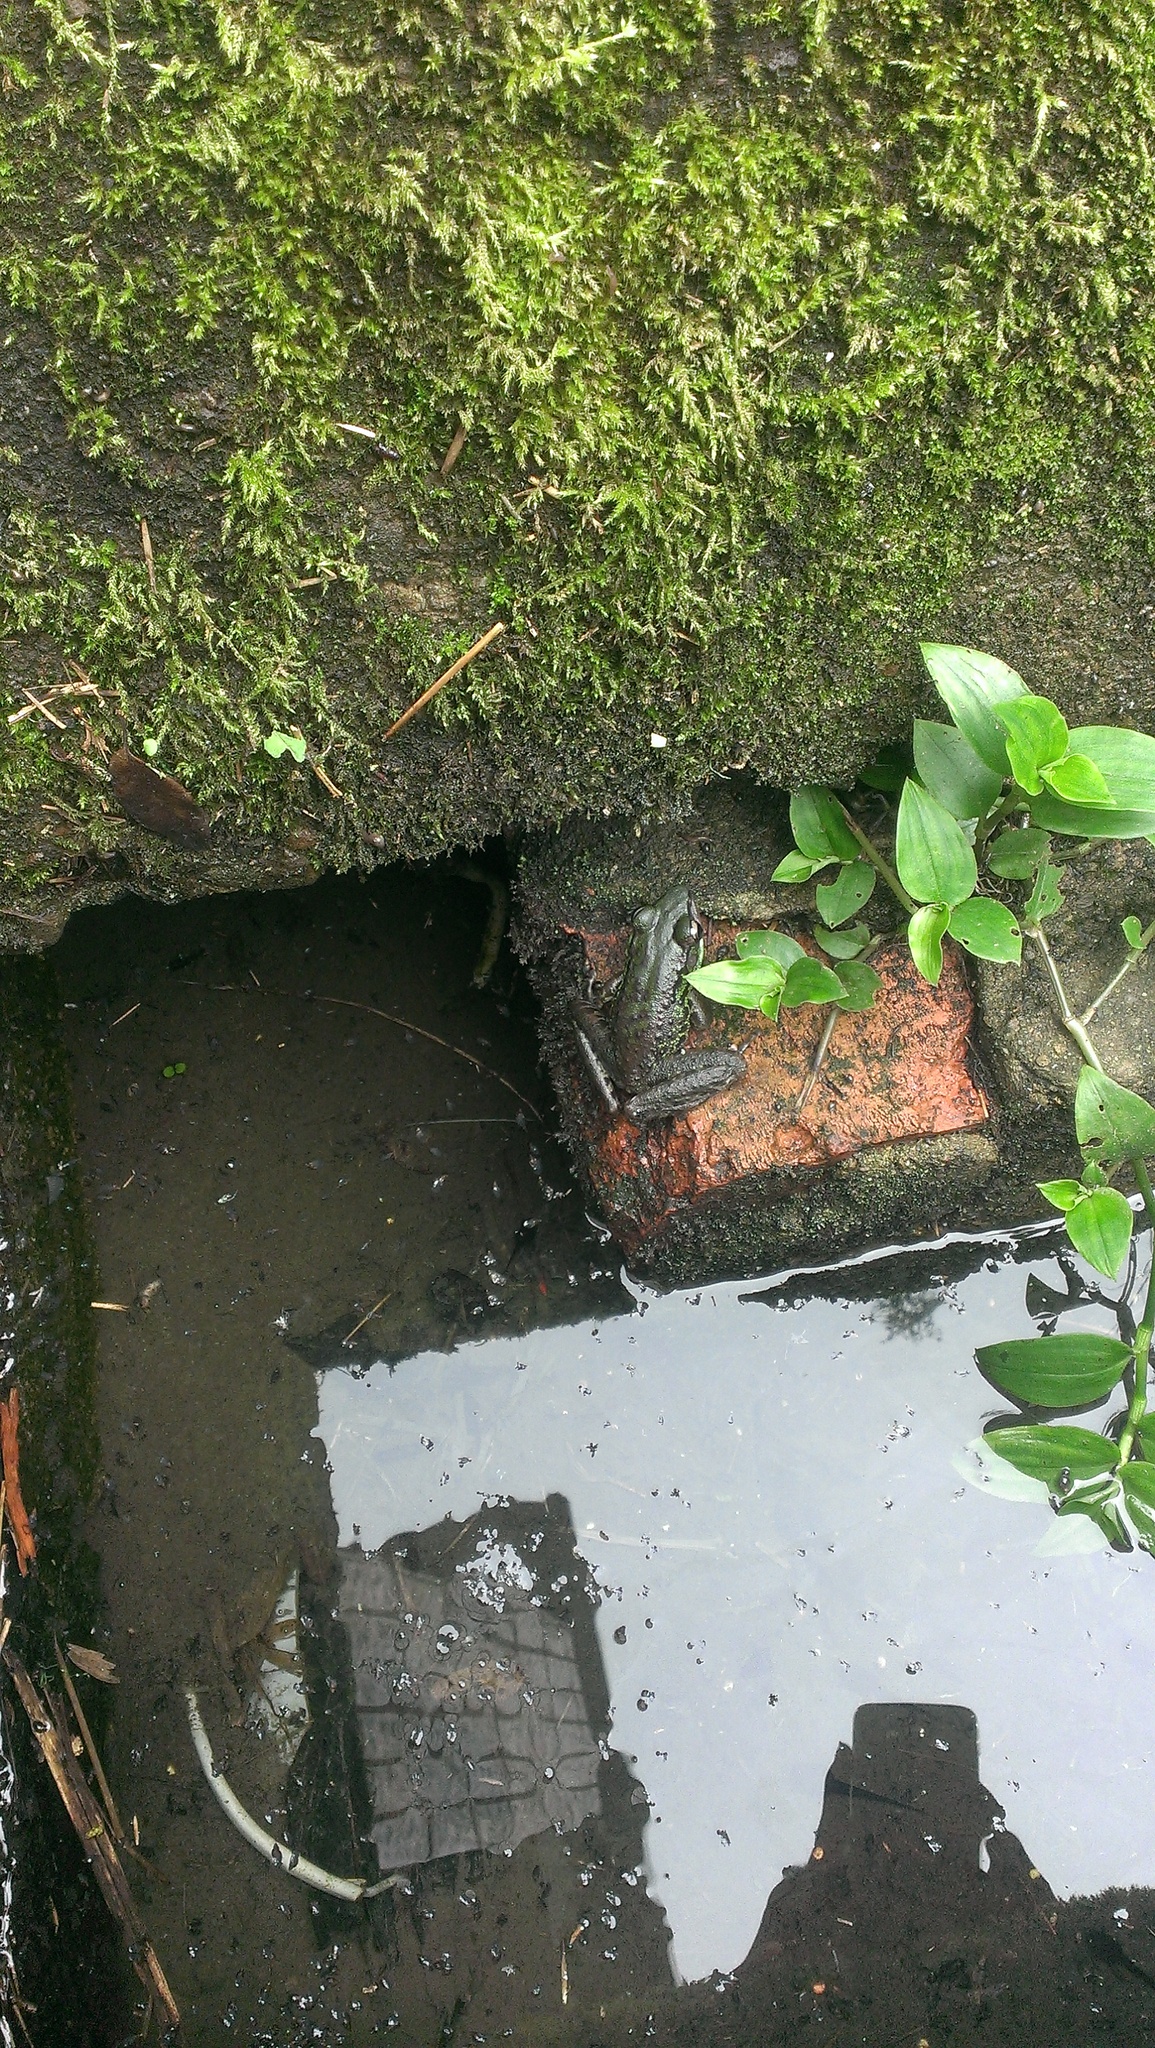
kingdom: Animalia
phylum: Chordata
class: Amphibia
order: Anura
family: Ranidae
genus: Odorrana
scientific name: Odorrana swinhoana
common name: Bangkimtsing frog
